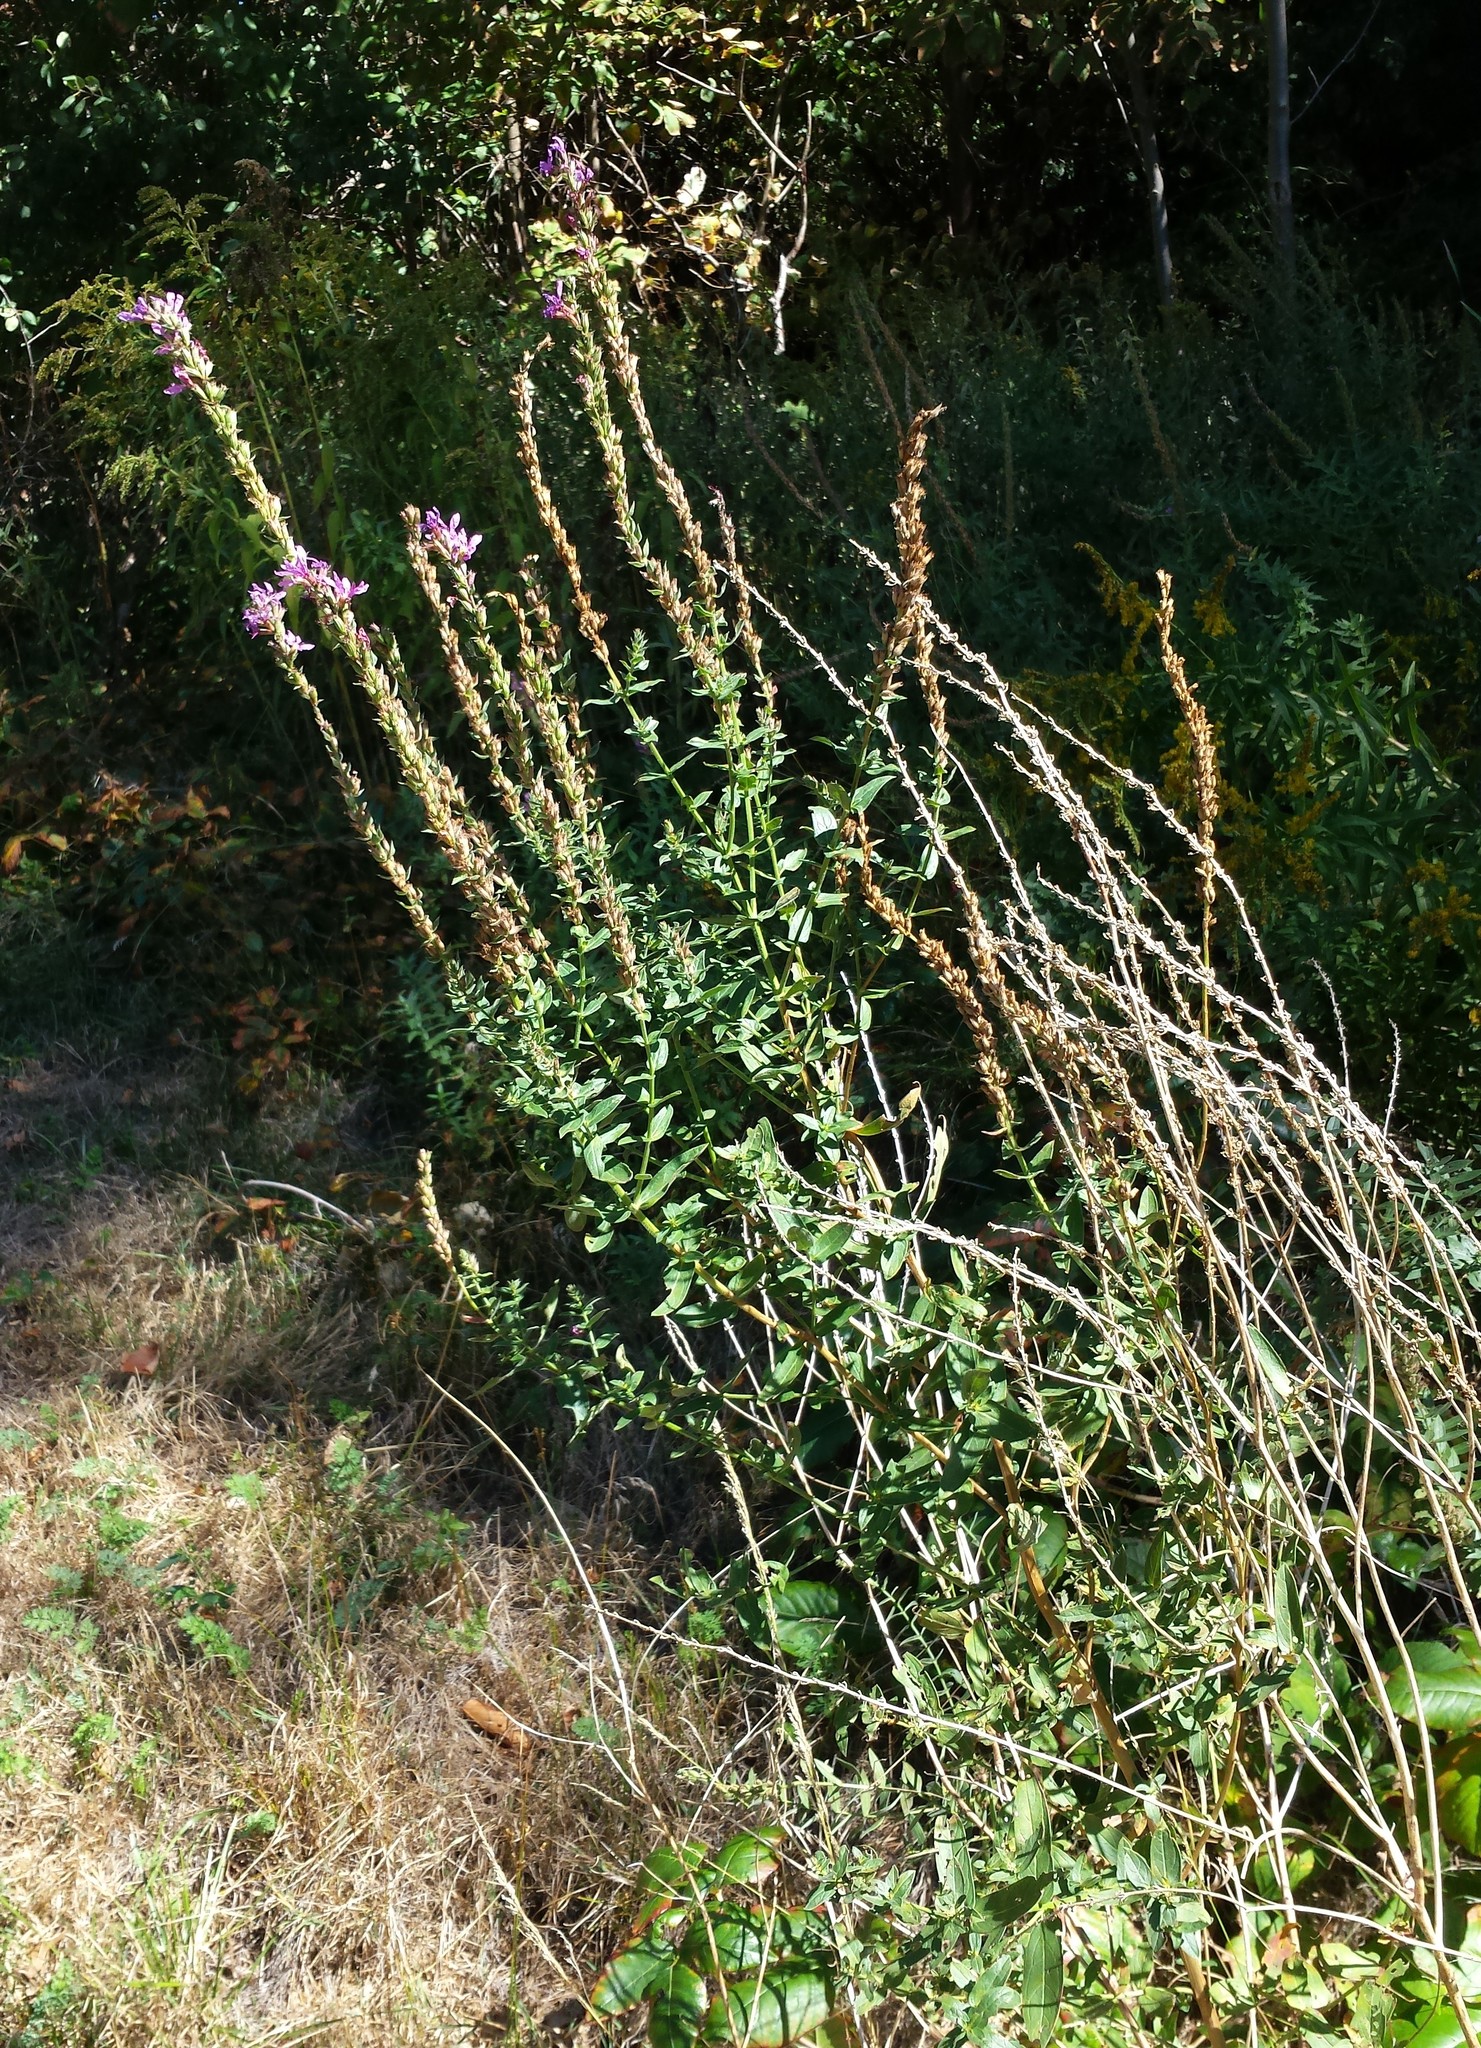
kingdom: Plantae
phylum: Tracheophyta
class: Magnoliopsida
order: Myrtales
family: Lythraceae
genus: Lythrum
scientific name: Lythrum salicaria
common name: Purple loosestrife
